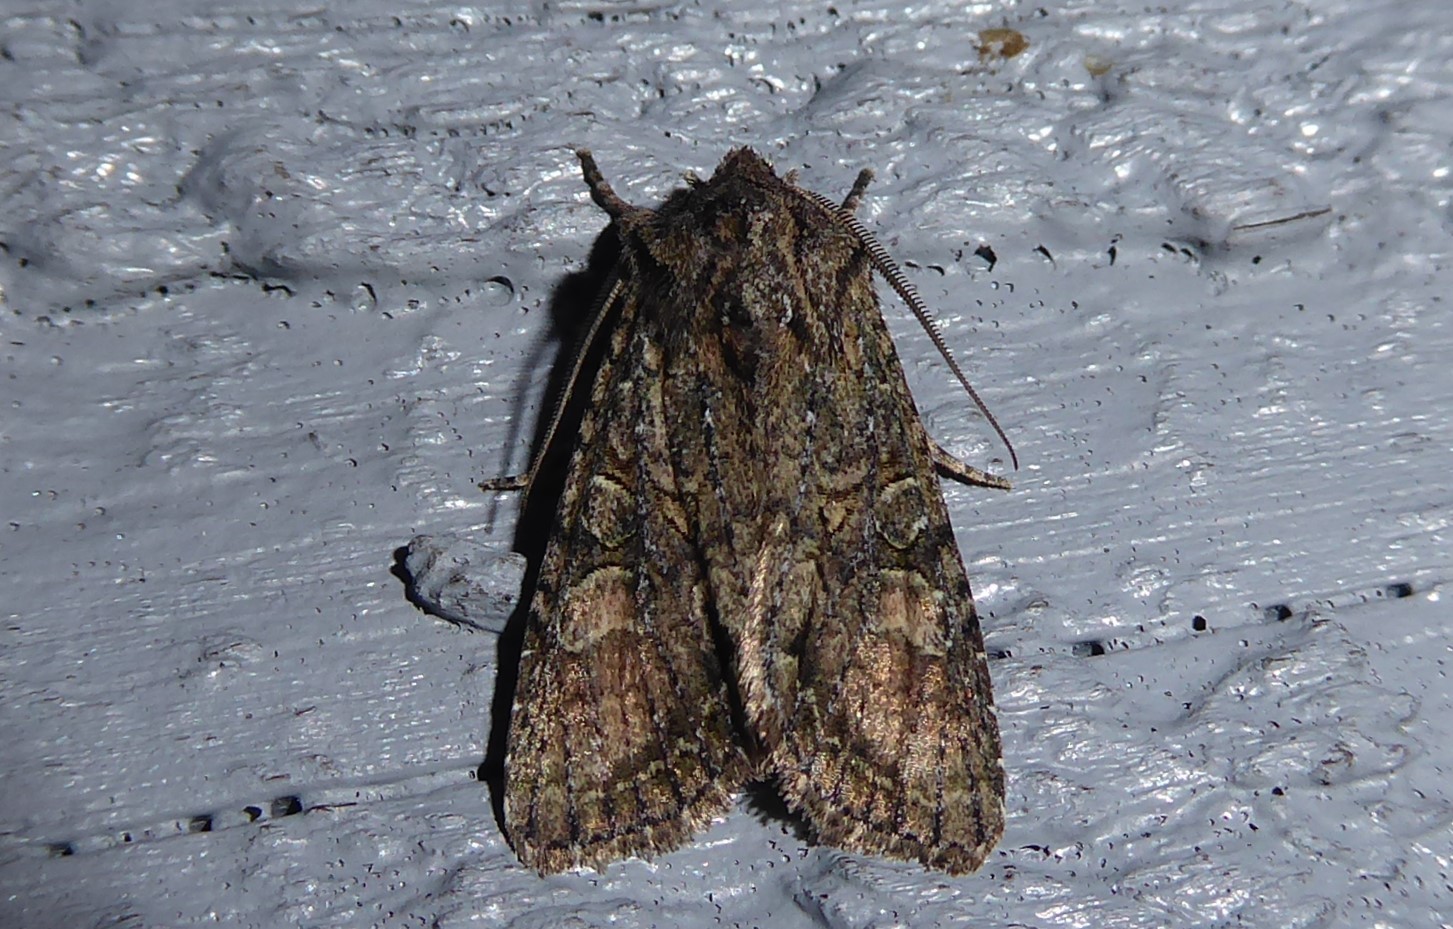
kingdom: Animalia
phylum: Arthropoda
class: Insecta
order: Lepidoptera
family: Noctuidae
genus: Ichneutica
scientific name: Ichneutica mutans
